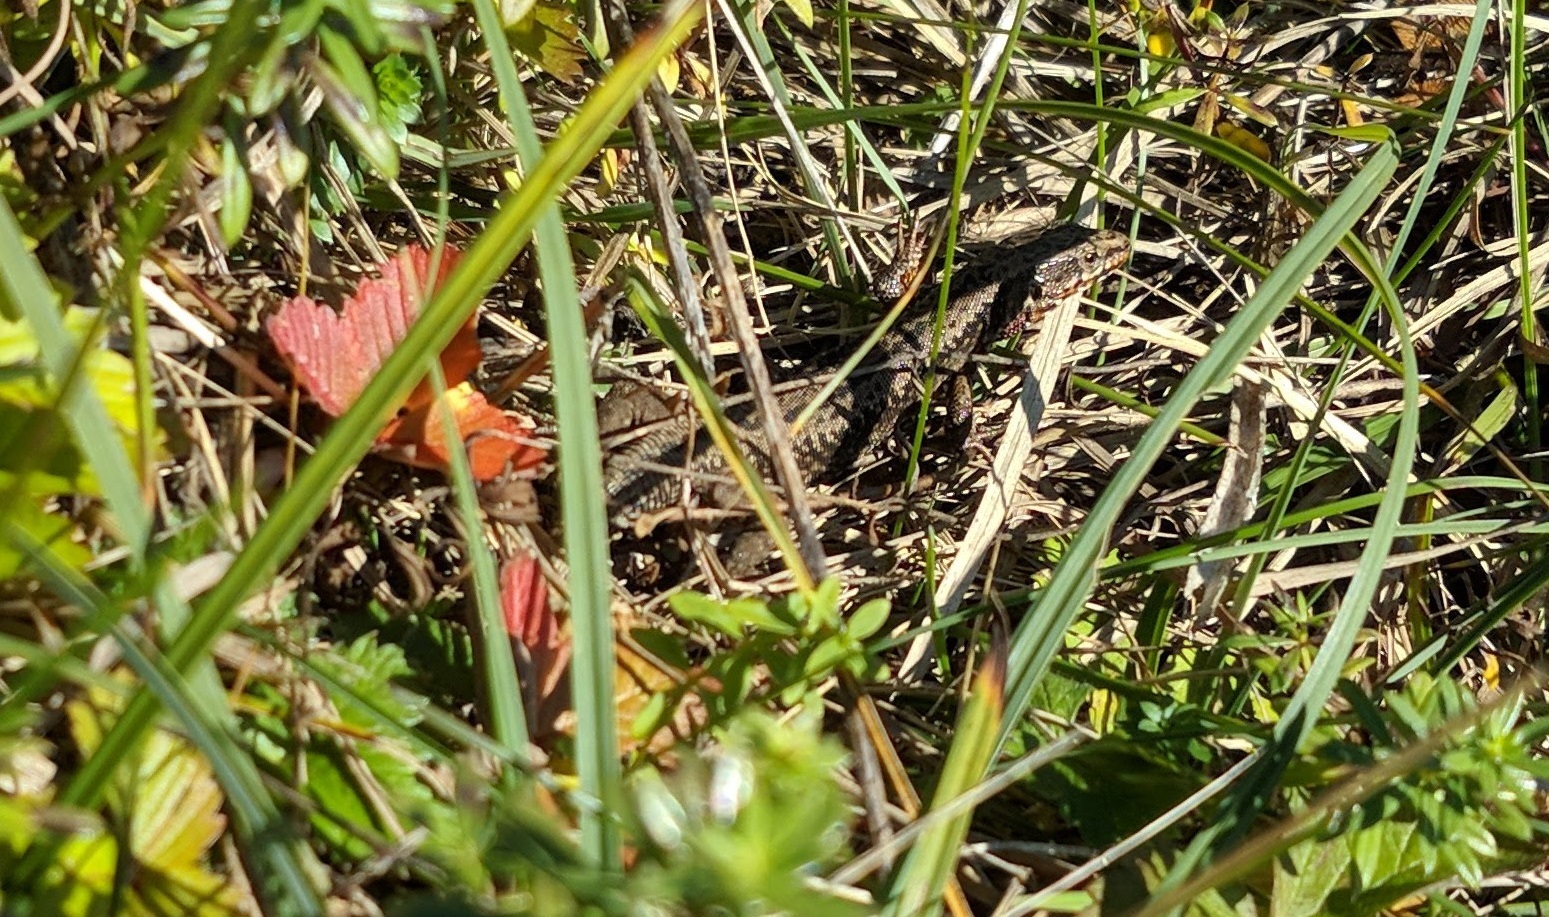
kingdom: Animalia
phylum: Chordata
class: Squamata
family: Lacertidae
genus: Podarcis
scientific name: Podarcis muralis
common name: Common wall lizard
